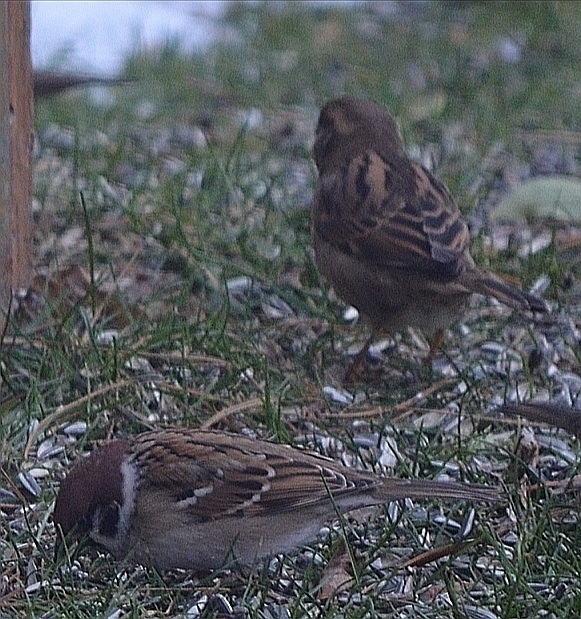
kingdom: Animalia
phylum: Chordata
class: Aves
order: Passeriformes
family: Passeridae
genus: Passer
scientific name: Passer montanus
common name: Eurasian tree sparrow
